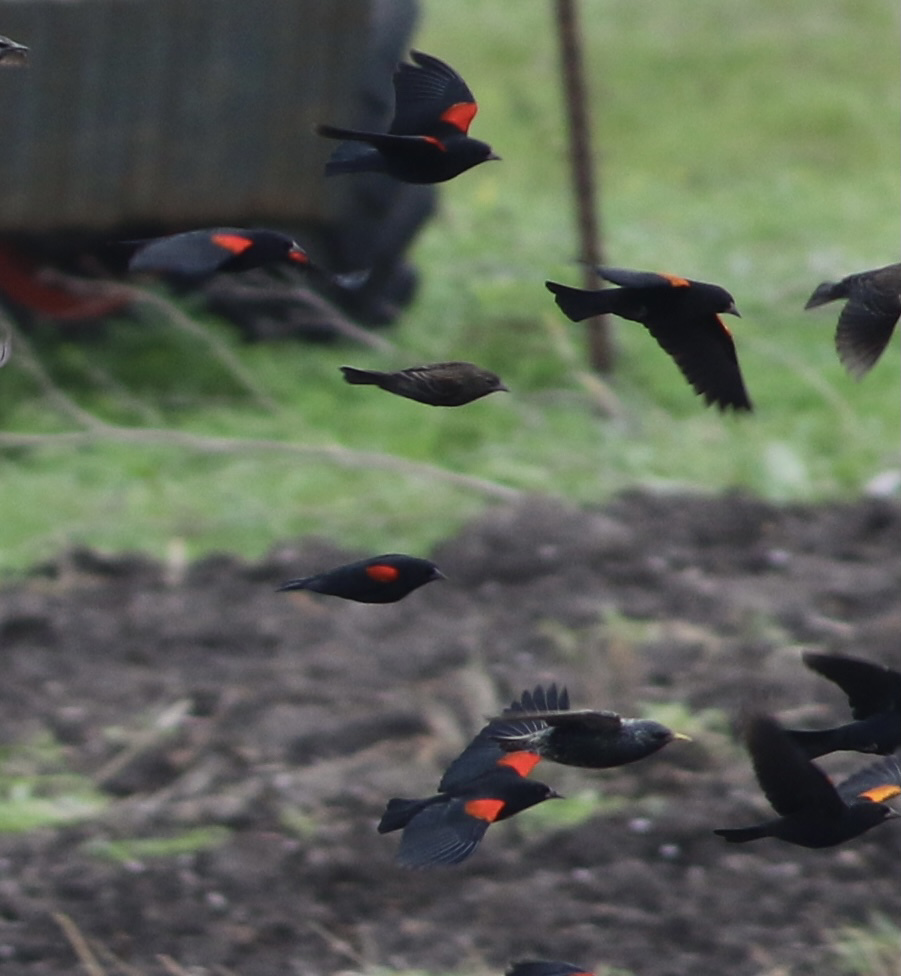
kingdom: Animalia
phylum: Chordata
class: Aves
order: Passeriformes
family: Icteridae
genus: Agelaius
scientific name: Agelaius phoeniceus
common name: Red-winged blackbird
